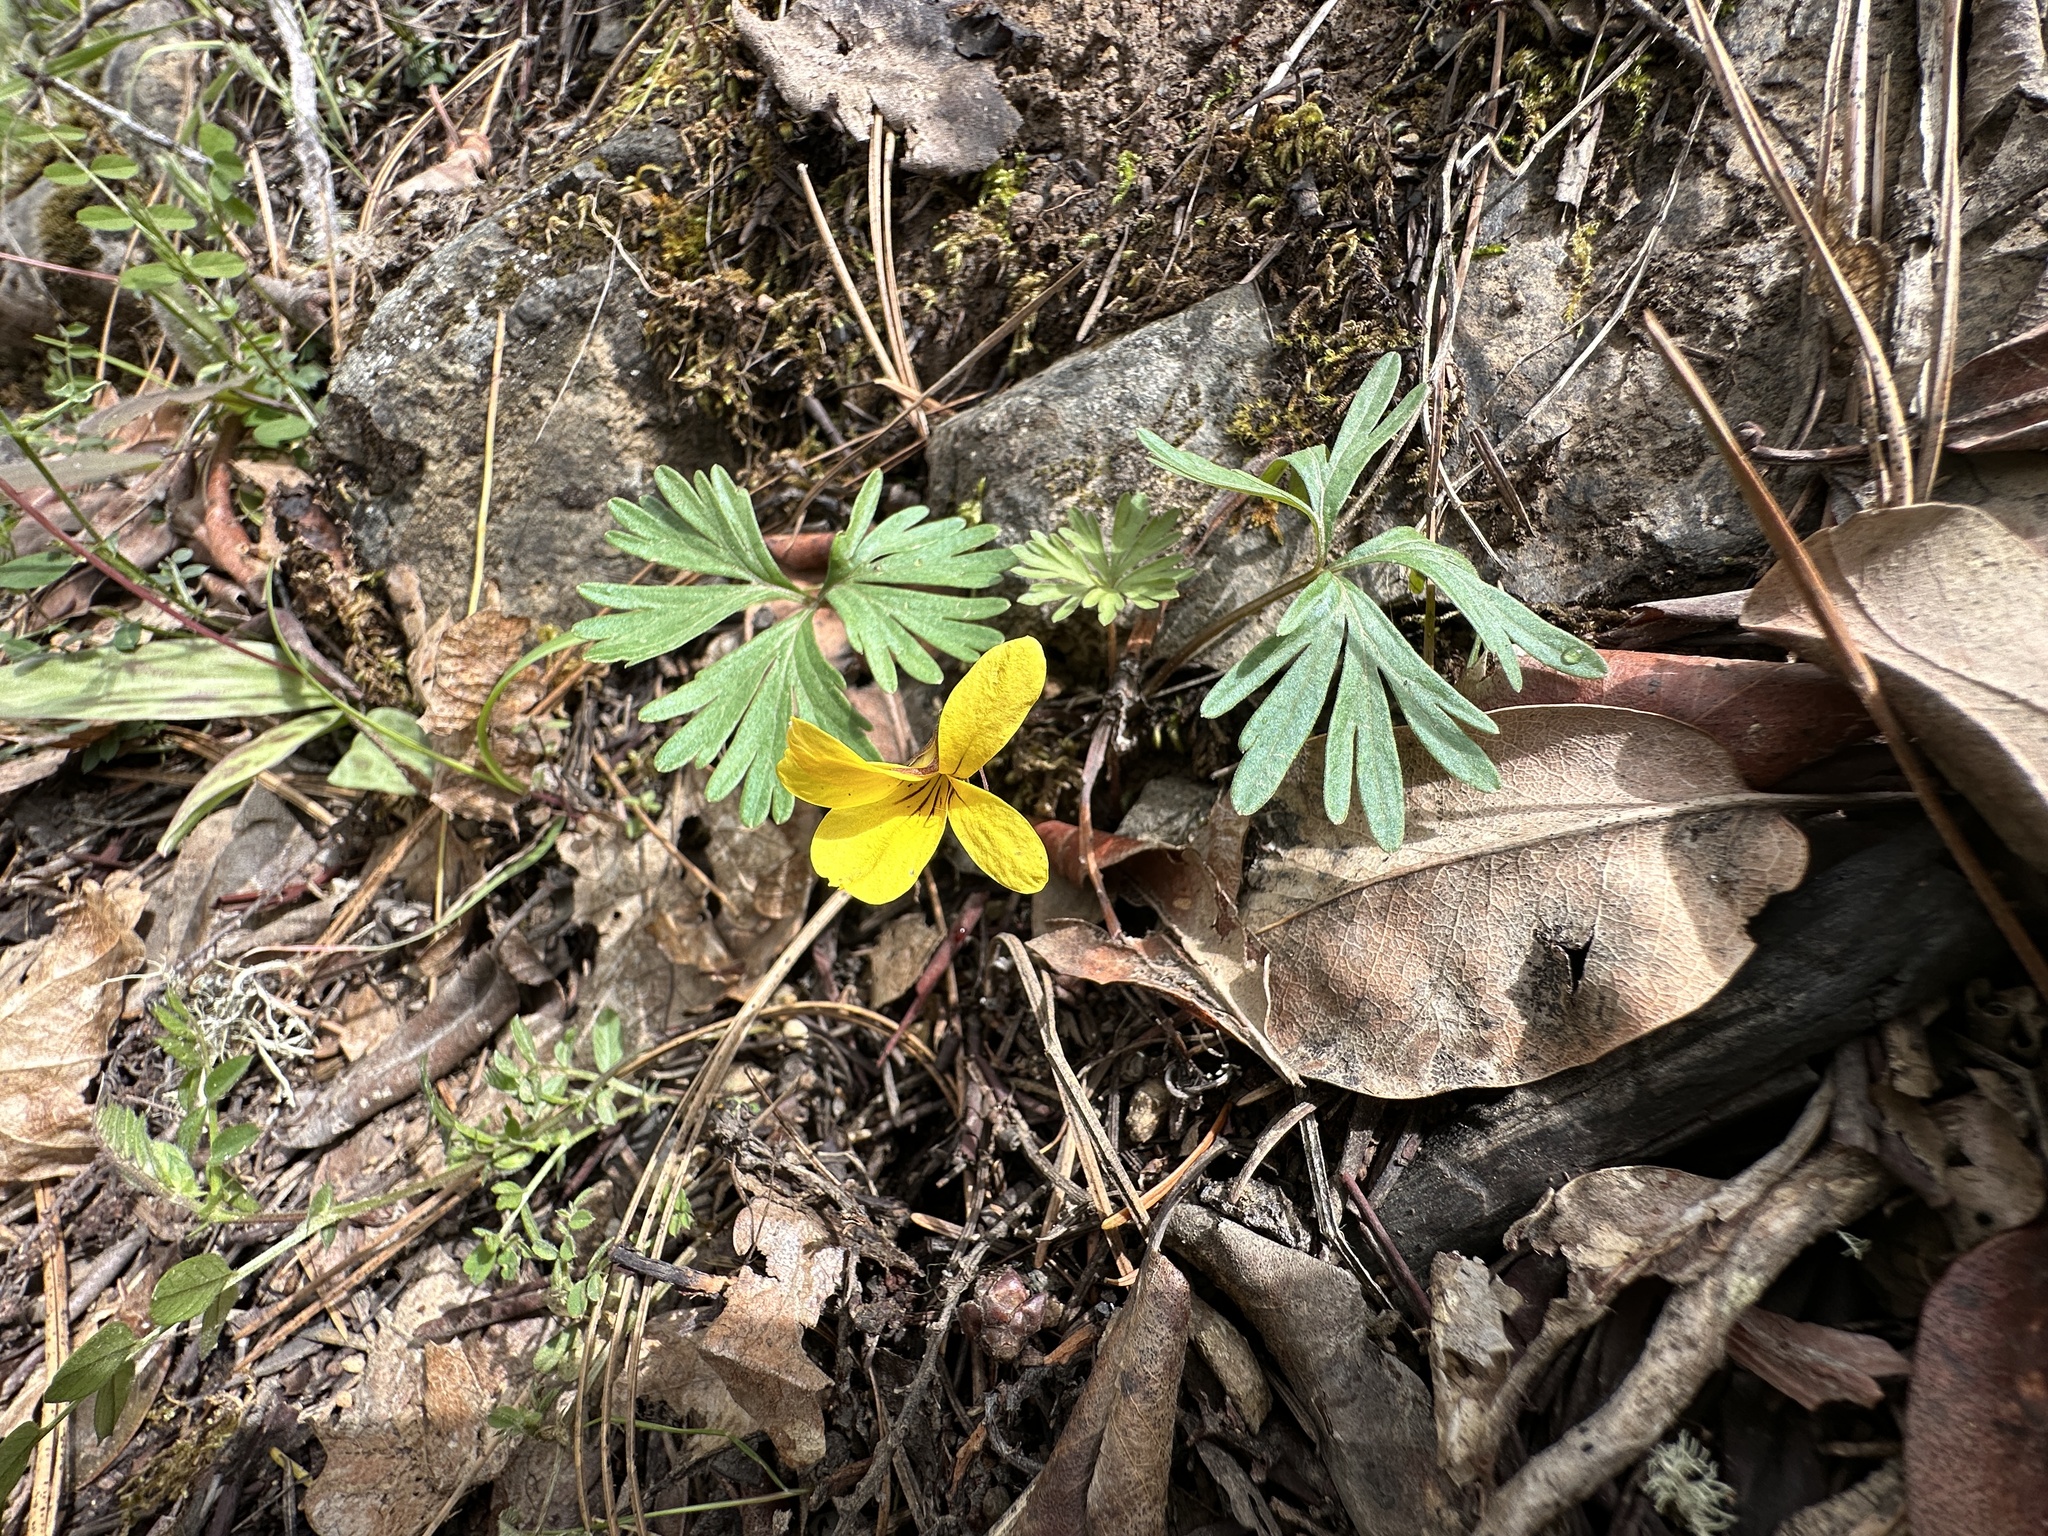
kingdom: Plantae
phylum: Tracheophyta
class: Magnoliopsida
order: Malpighiales
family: Violaceae
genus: Viola
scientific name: Viola sheltonii
